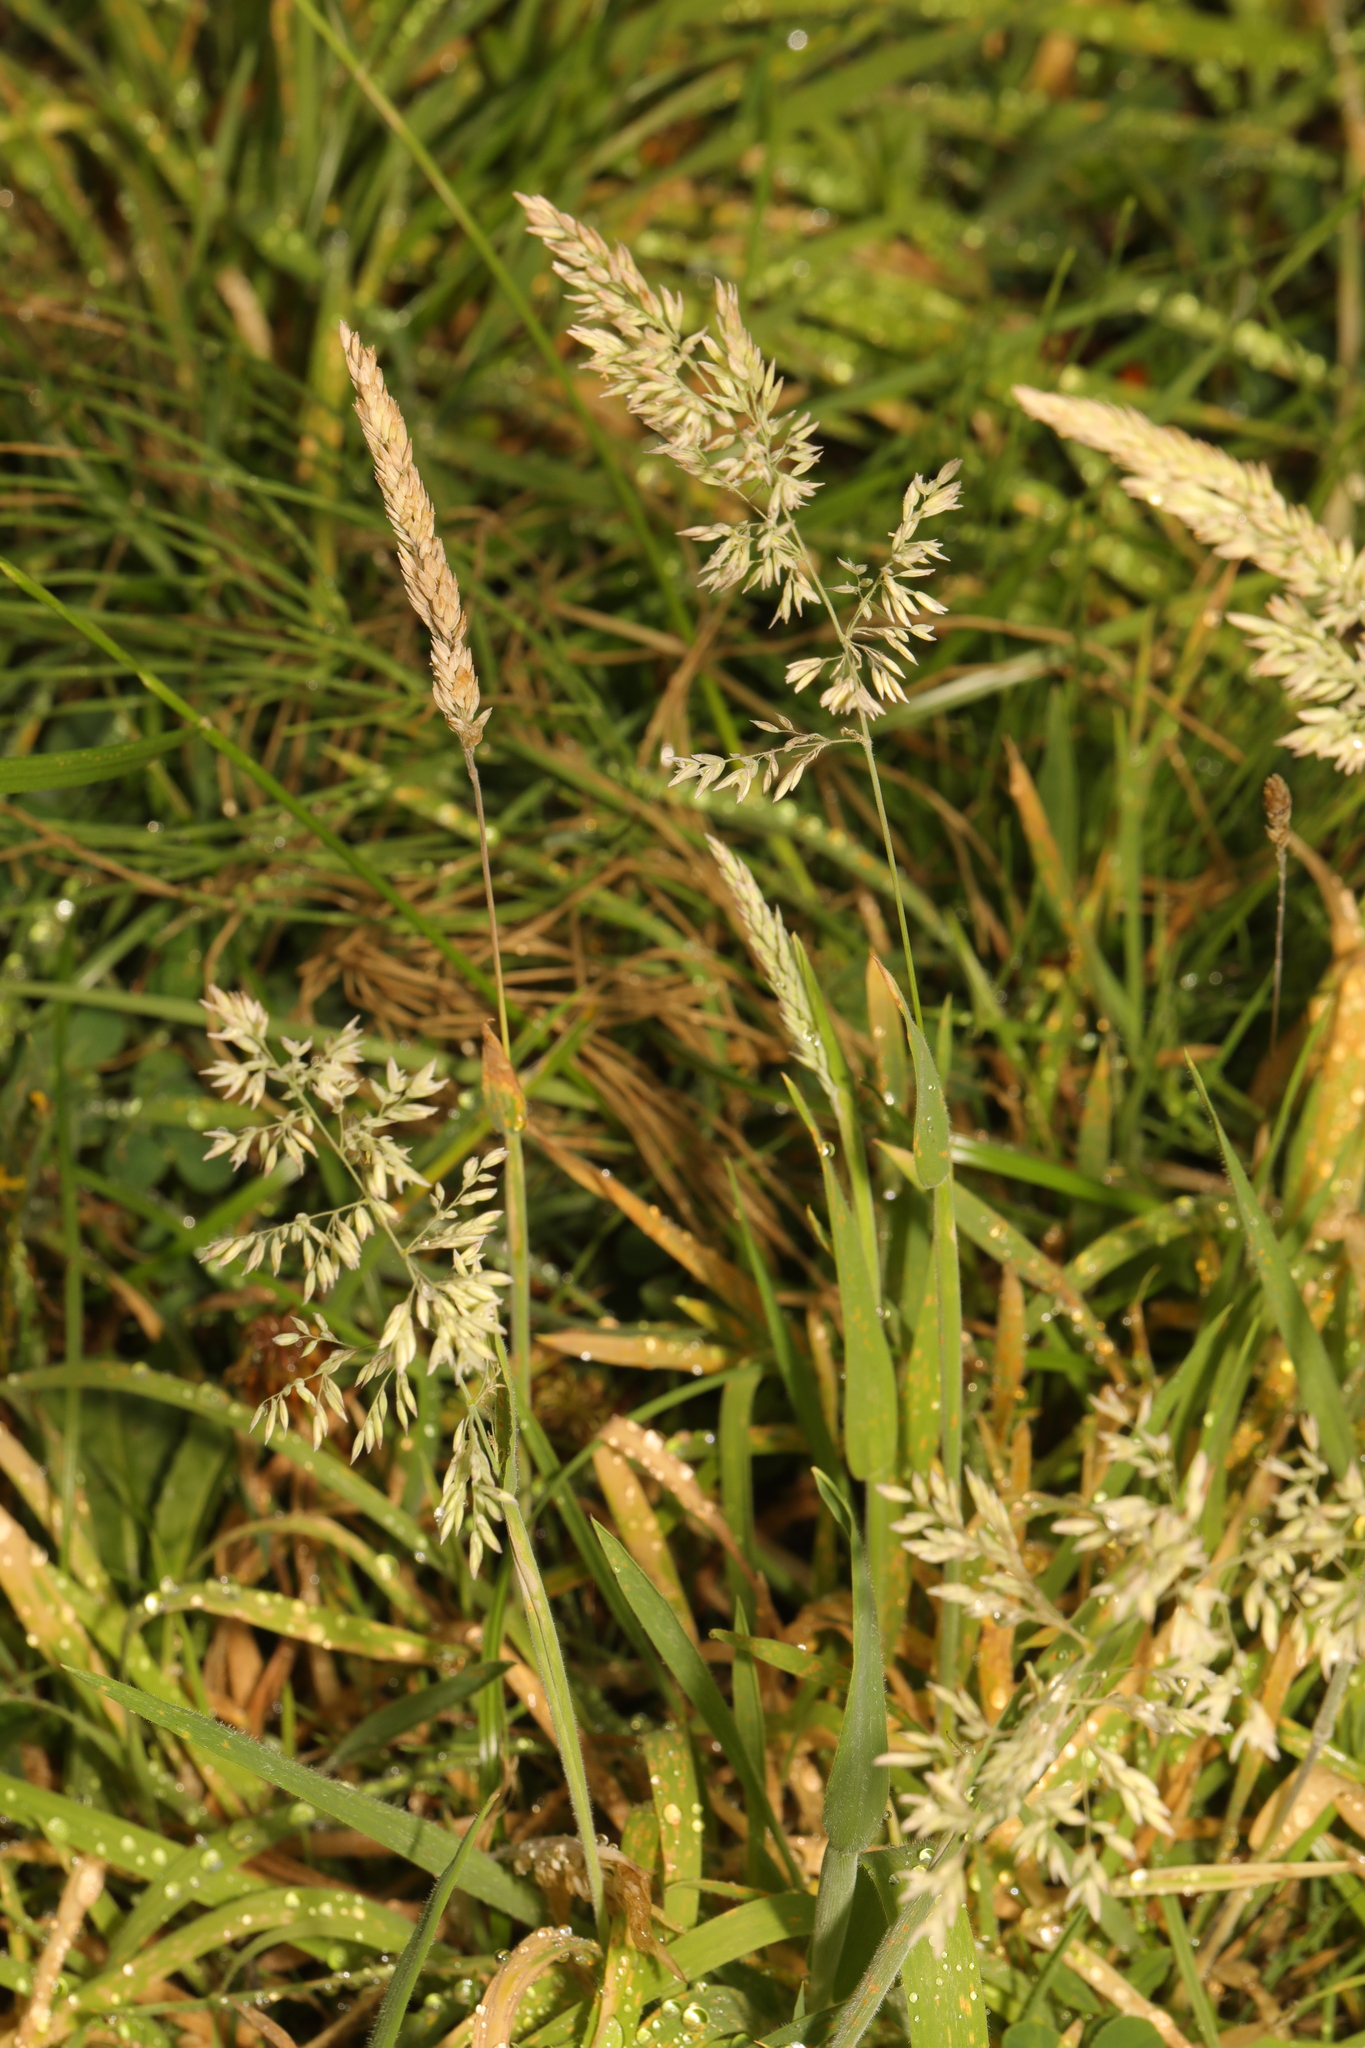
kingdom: Plantae
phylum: Tracheophyta
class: Liliopsida
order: Poales
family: Poaceae
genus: Holcus
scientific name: Holcus lanatus
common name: Yorkshire-fog
